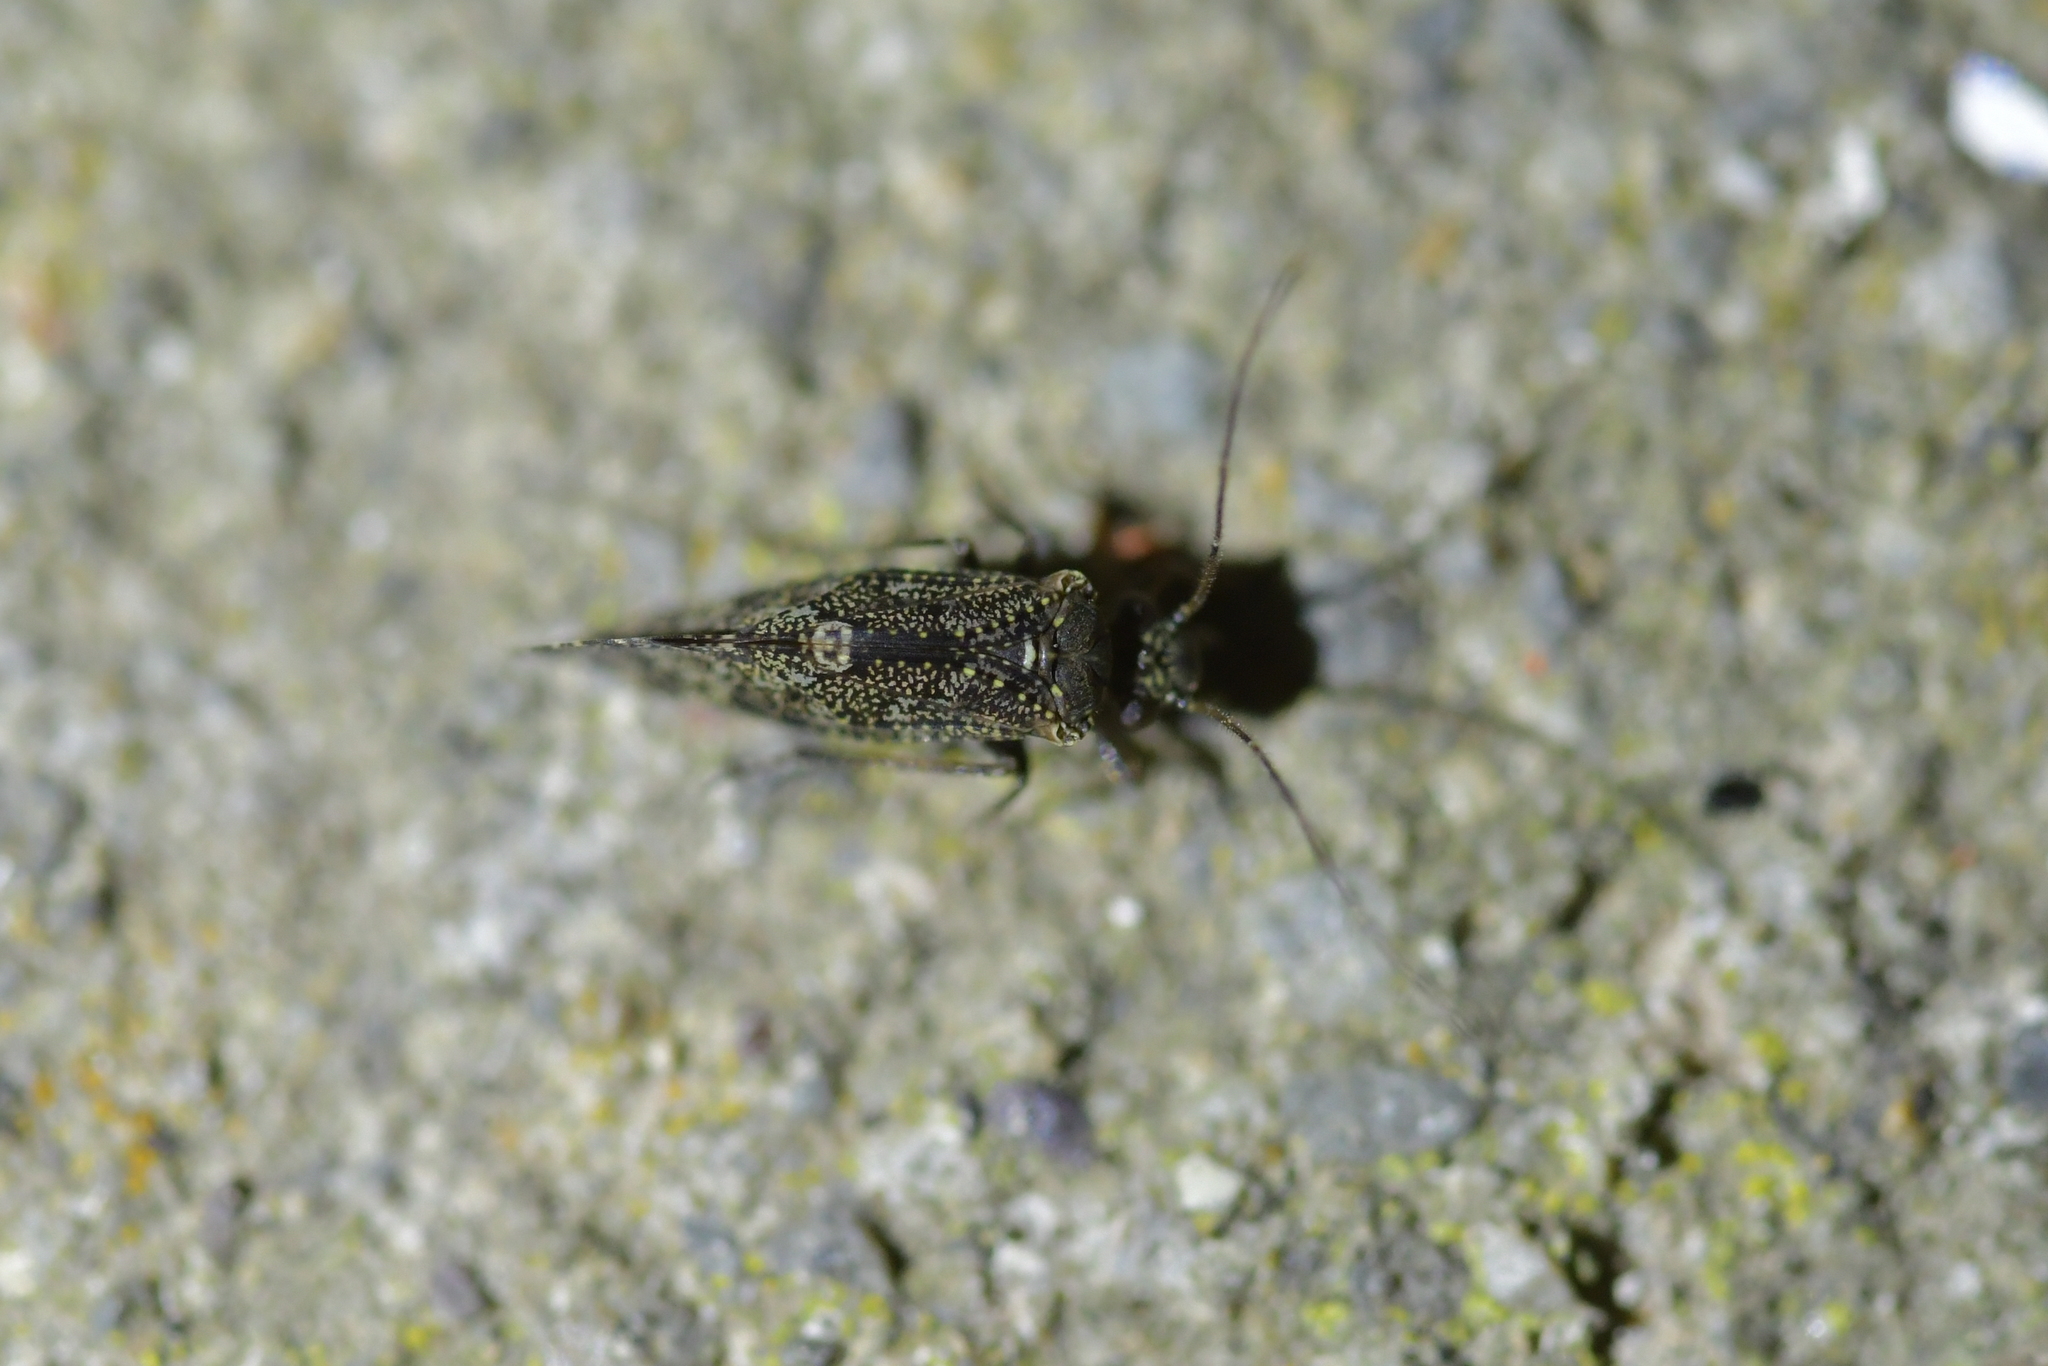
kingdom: Animalia
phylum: Arthropoda
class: Insecta
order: Psocodea
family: Myopsocidae
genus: Nimbopsocus
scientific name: Nimbopsocus australis
